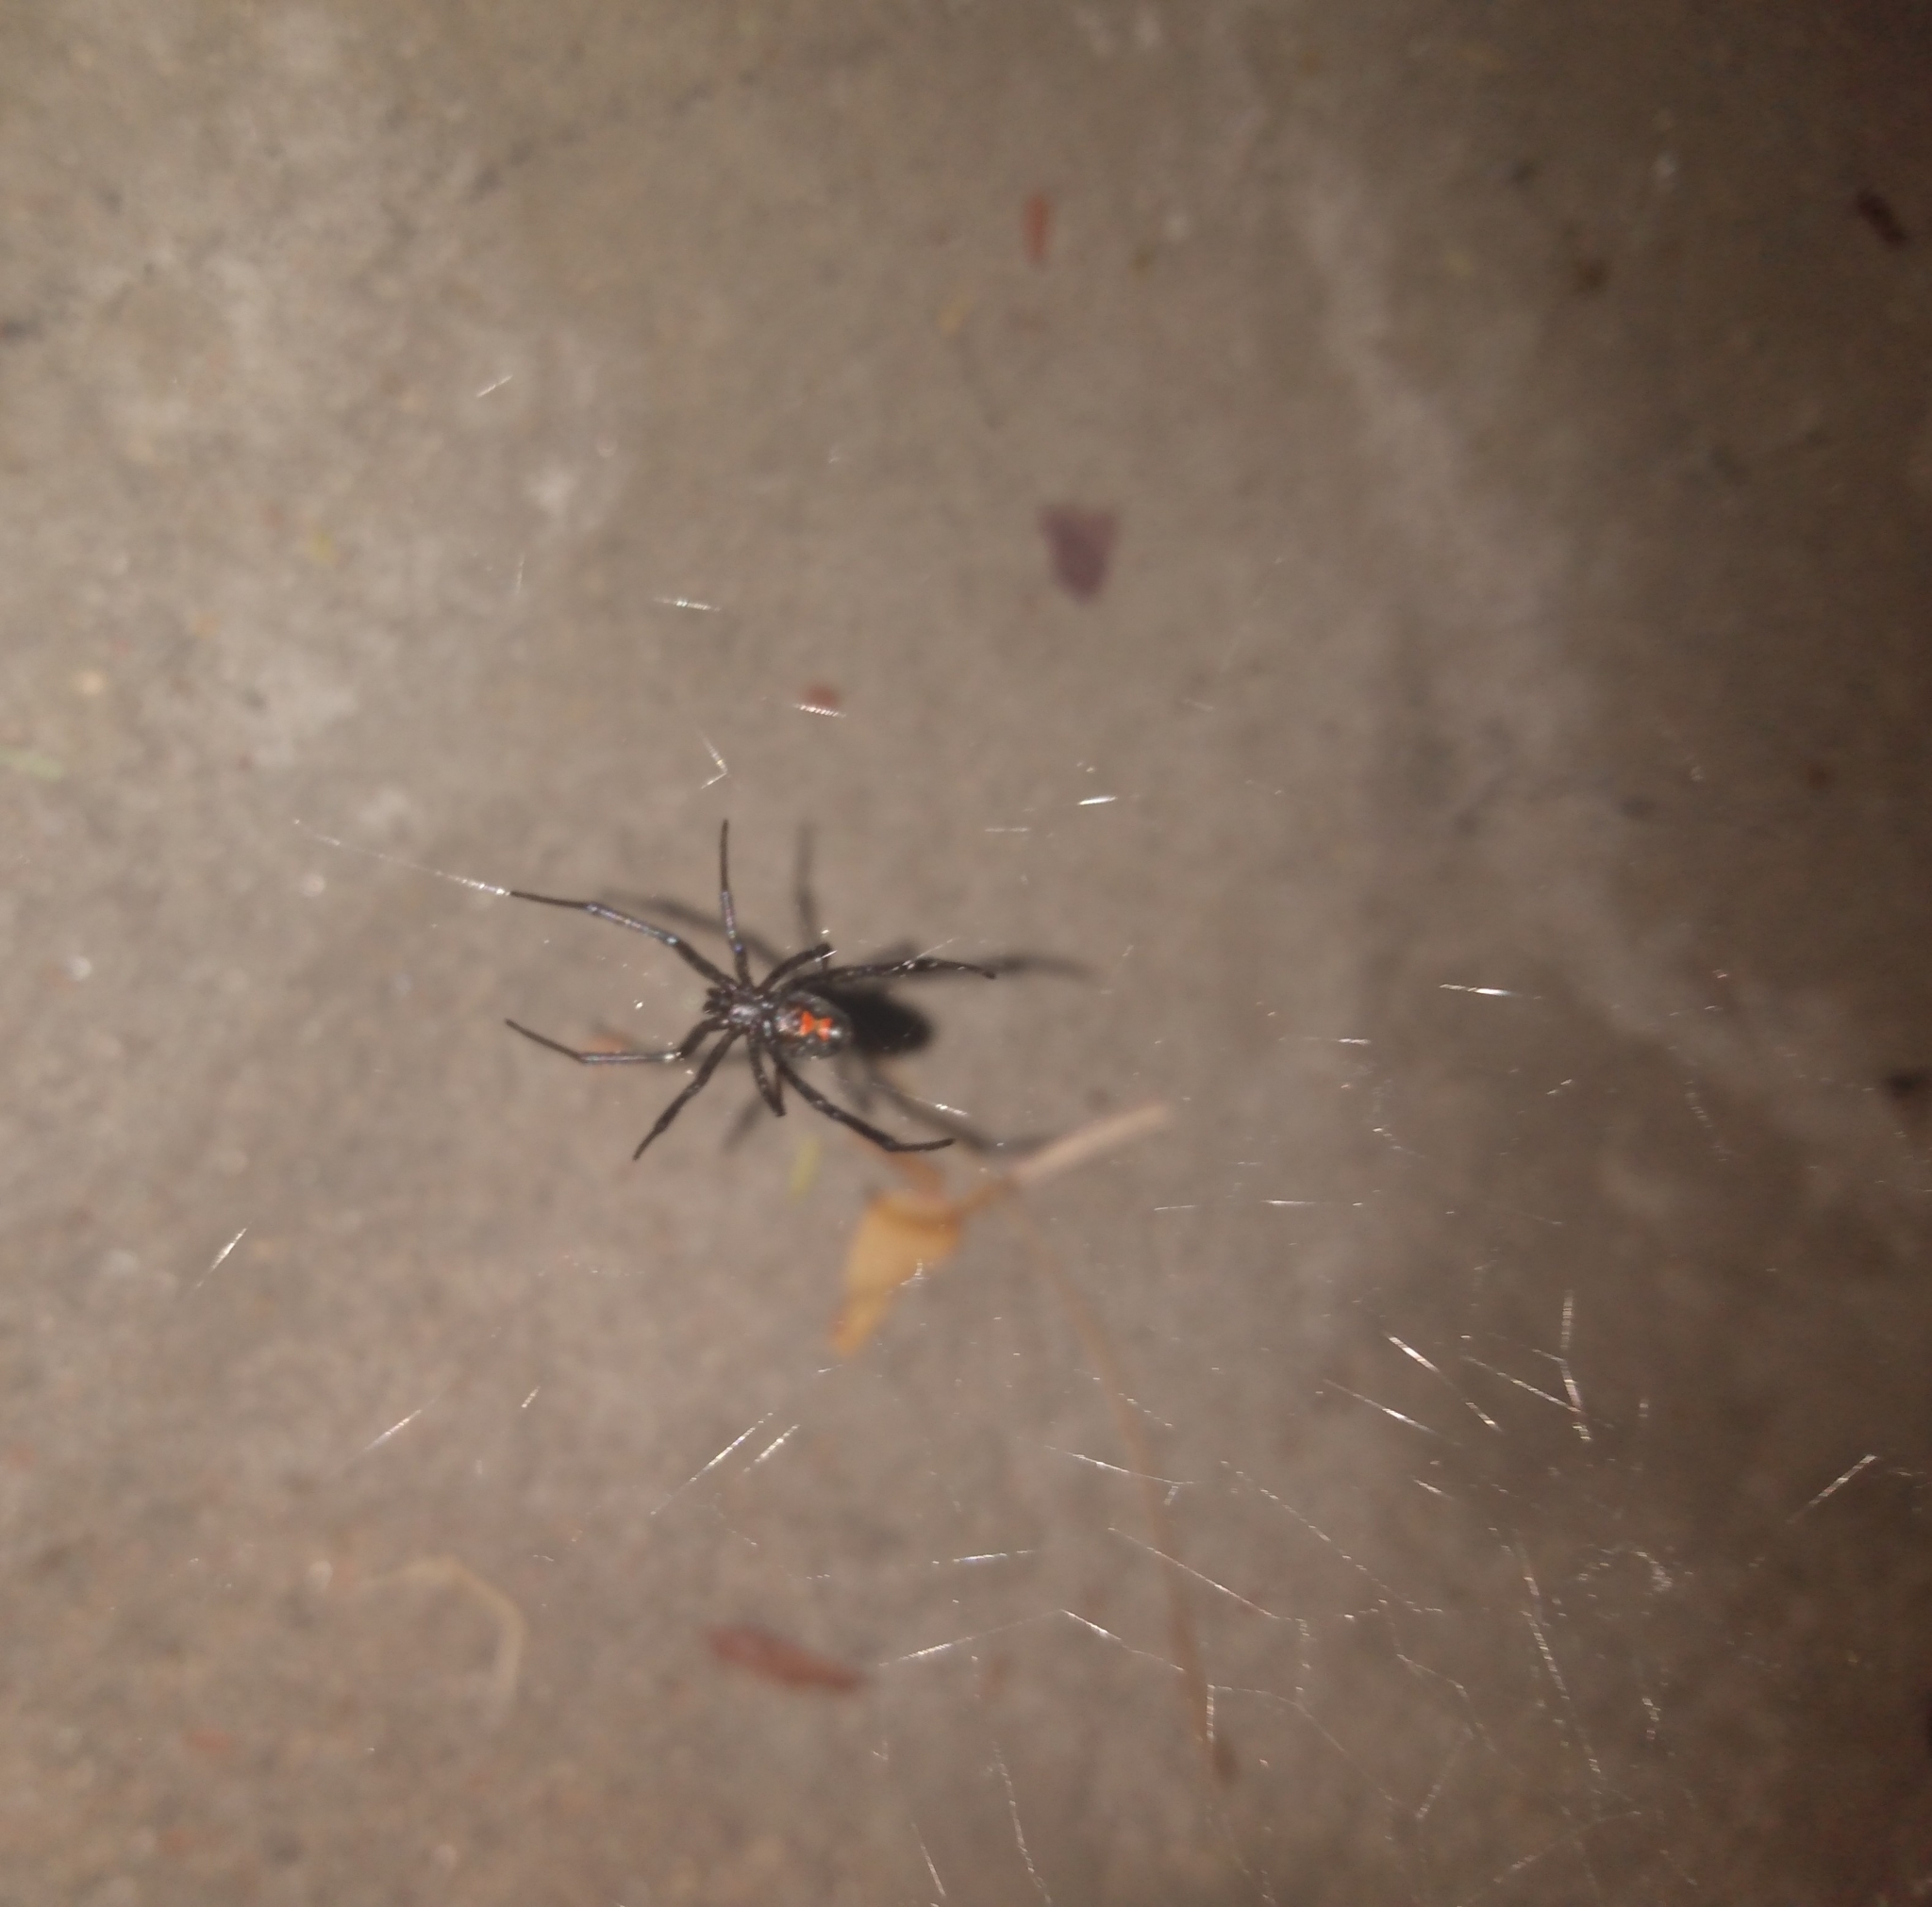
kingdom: Animalia
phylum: Arthropoda
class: Arachnida
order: Araneae
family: Theridiidae
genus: Latrodectus
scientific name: Latrodectus hesperus
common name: Western black widow
